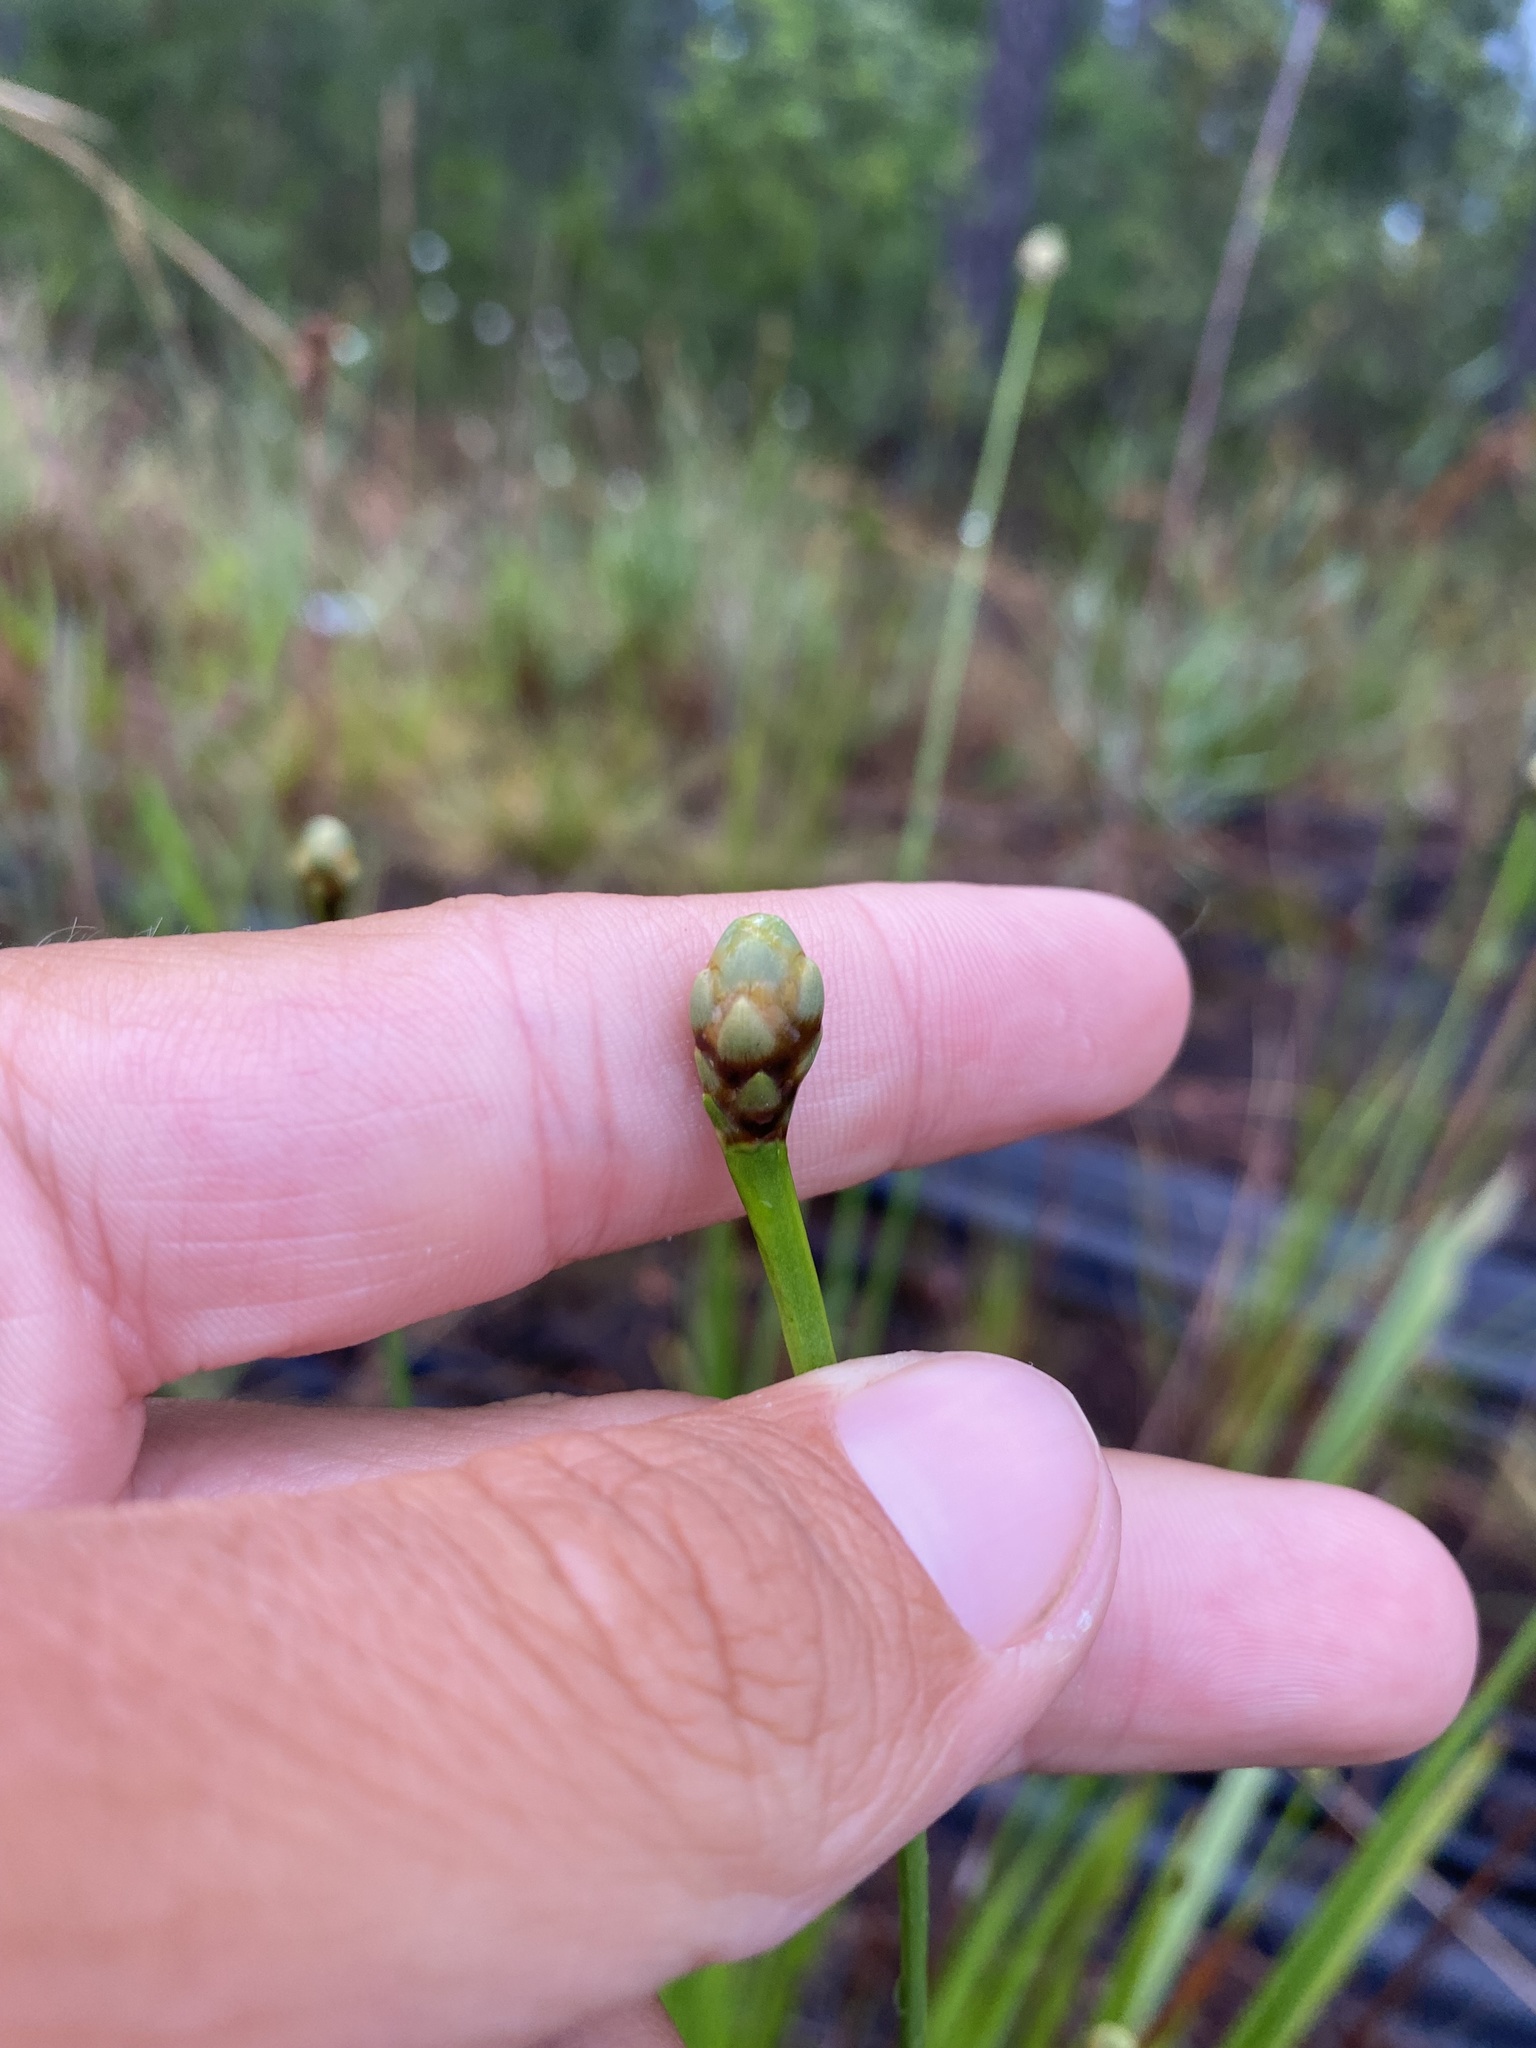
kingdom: Plantae
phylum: Tracheophyta
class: Liliopsida
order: Poales
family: Xyridaceae
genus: Xyris
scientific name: Xyris ambigua
